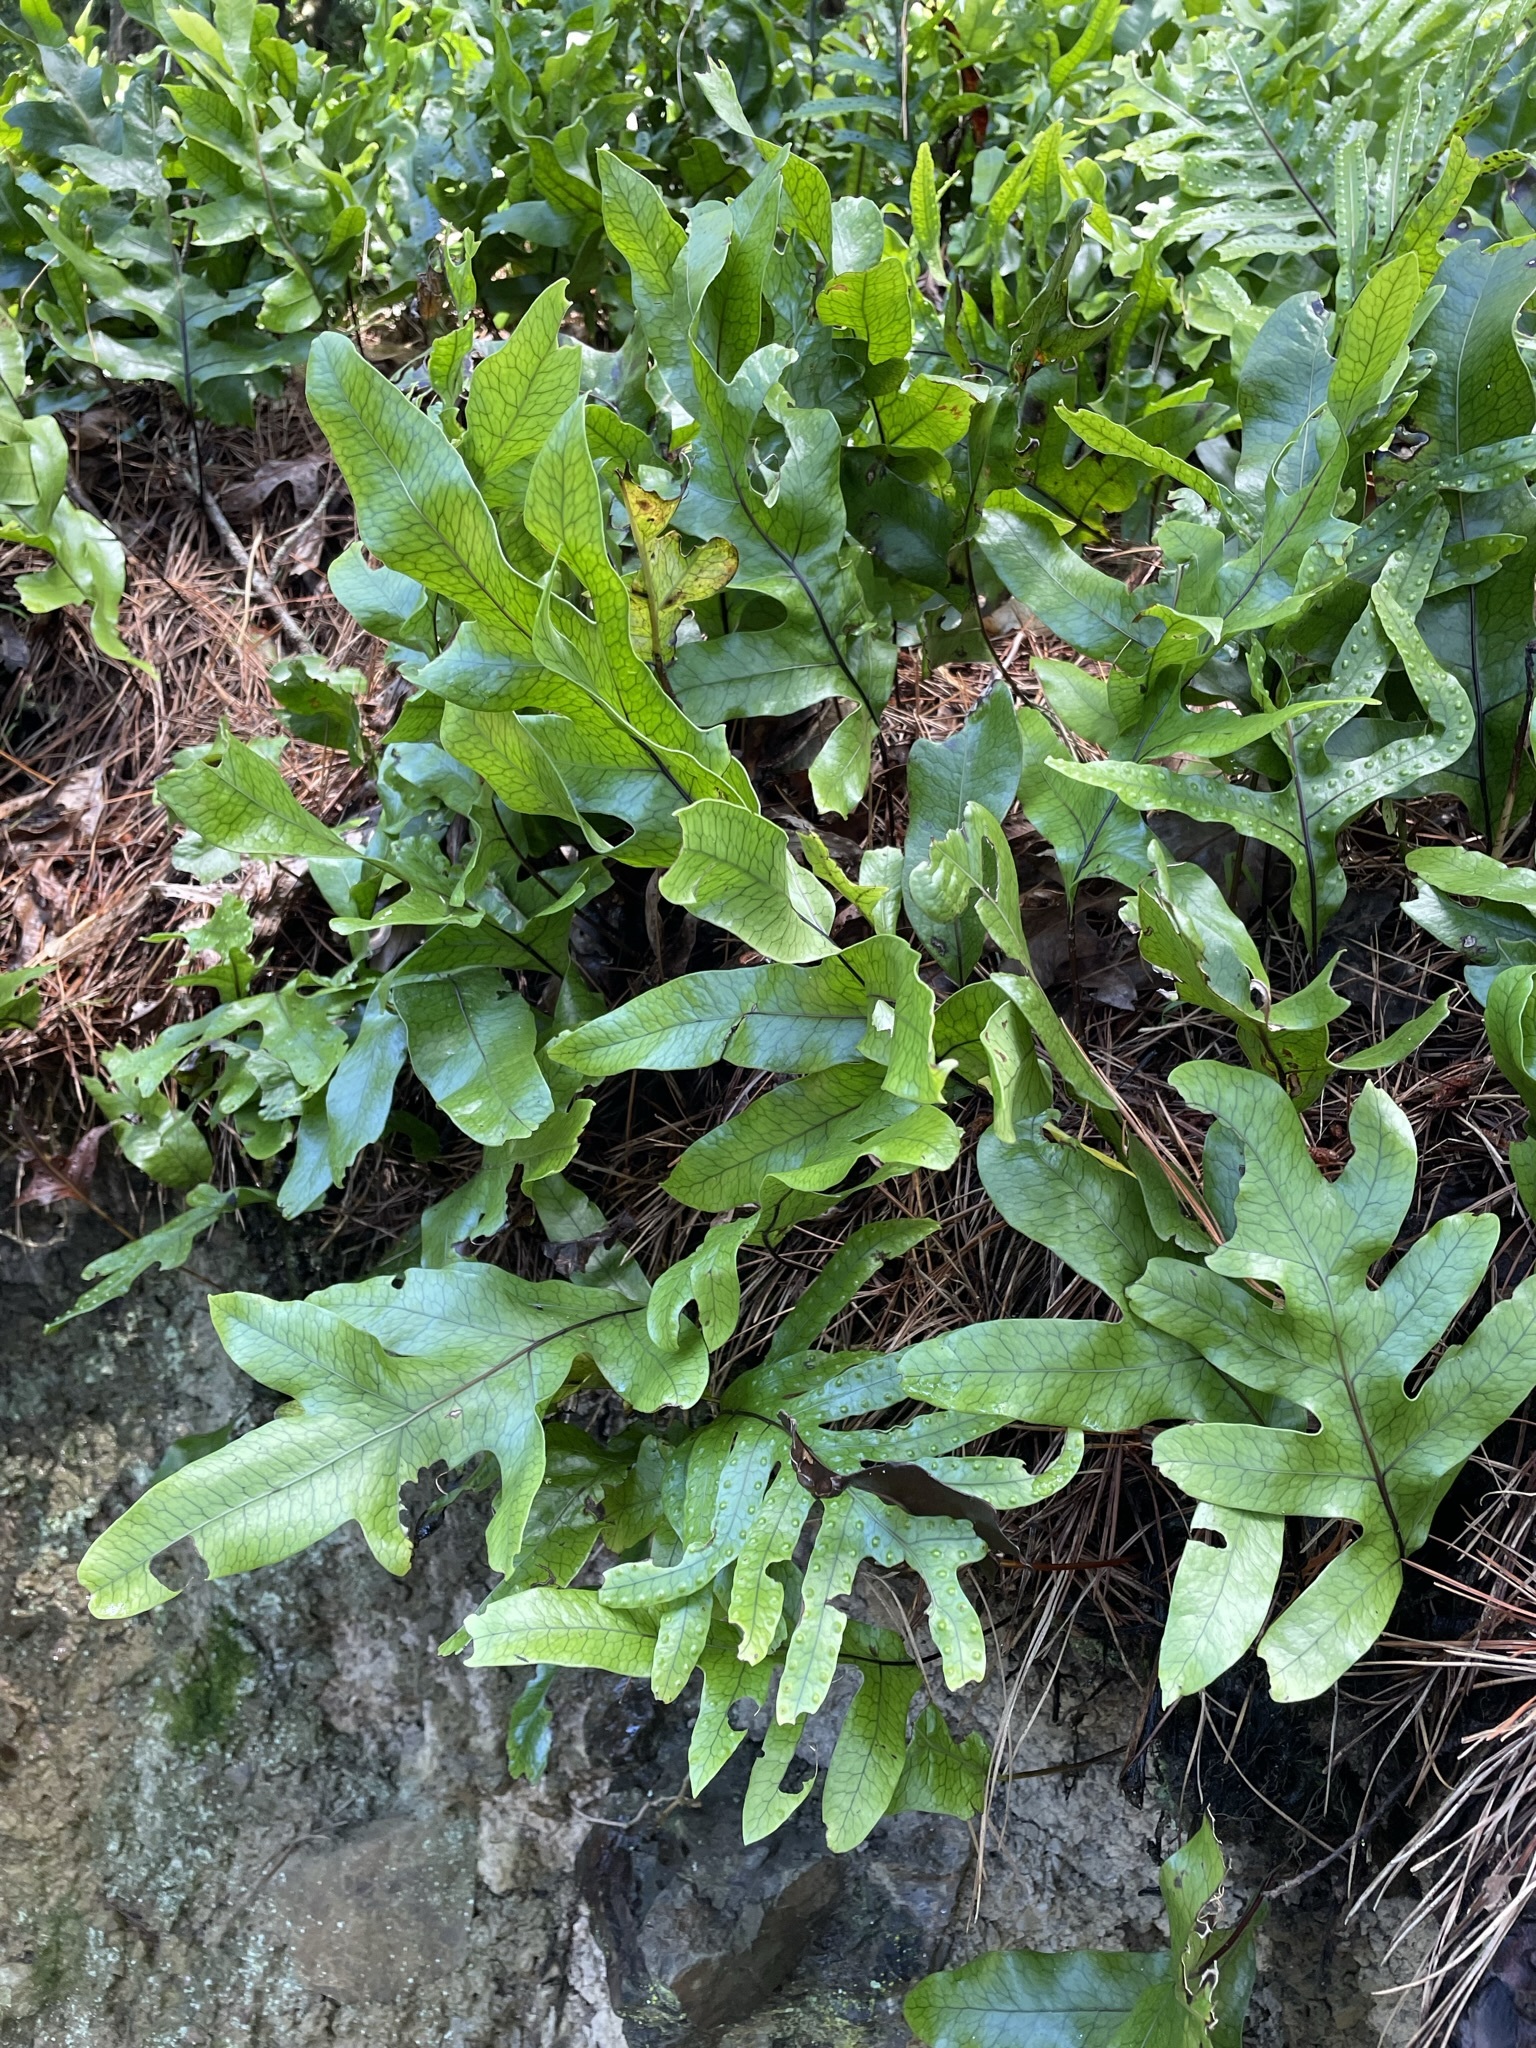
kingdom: Plantae
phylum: Tracheophyta
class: Polypodiopsida
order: Polypodiales
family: Polypodiaceae
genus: Lecanopteris
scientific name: Lecanopteris pustulata
